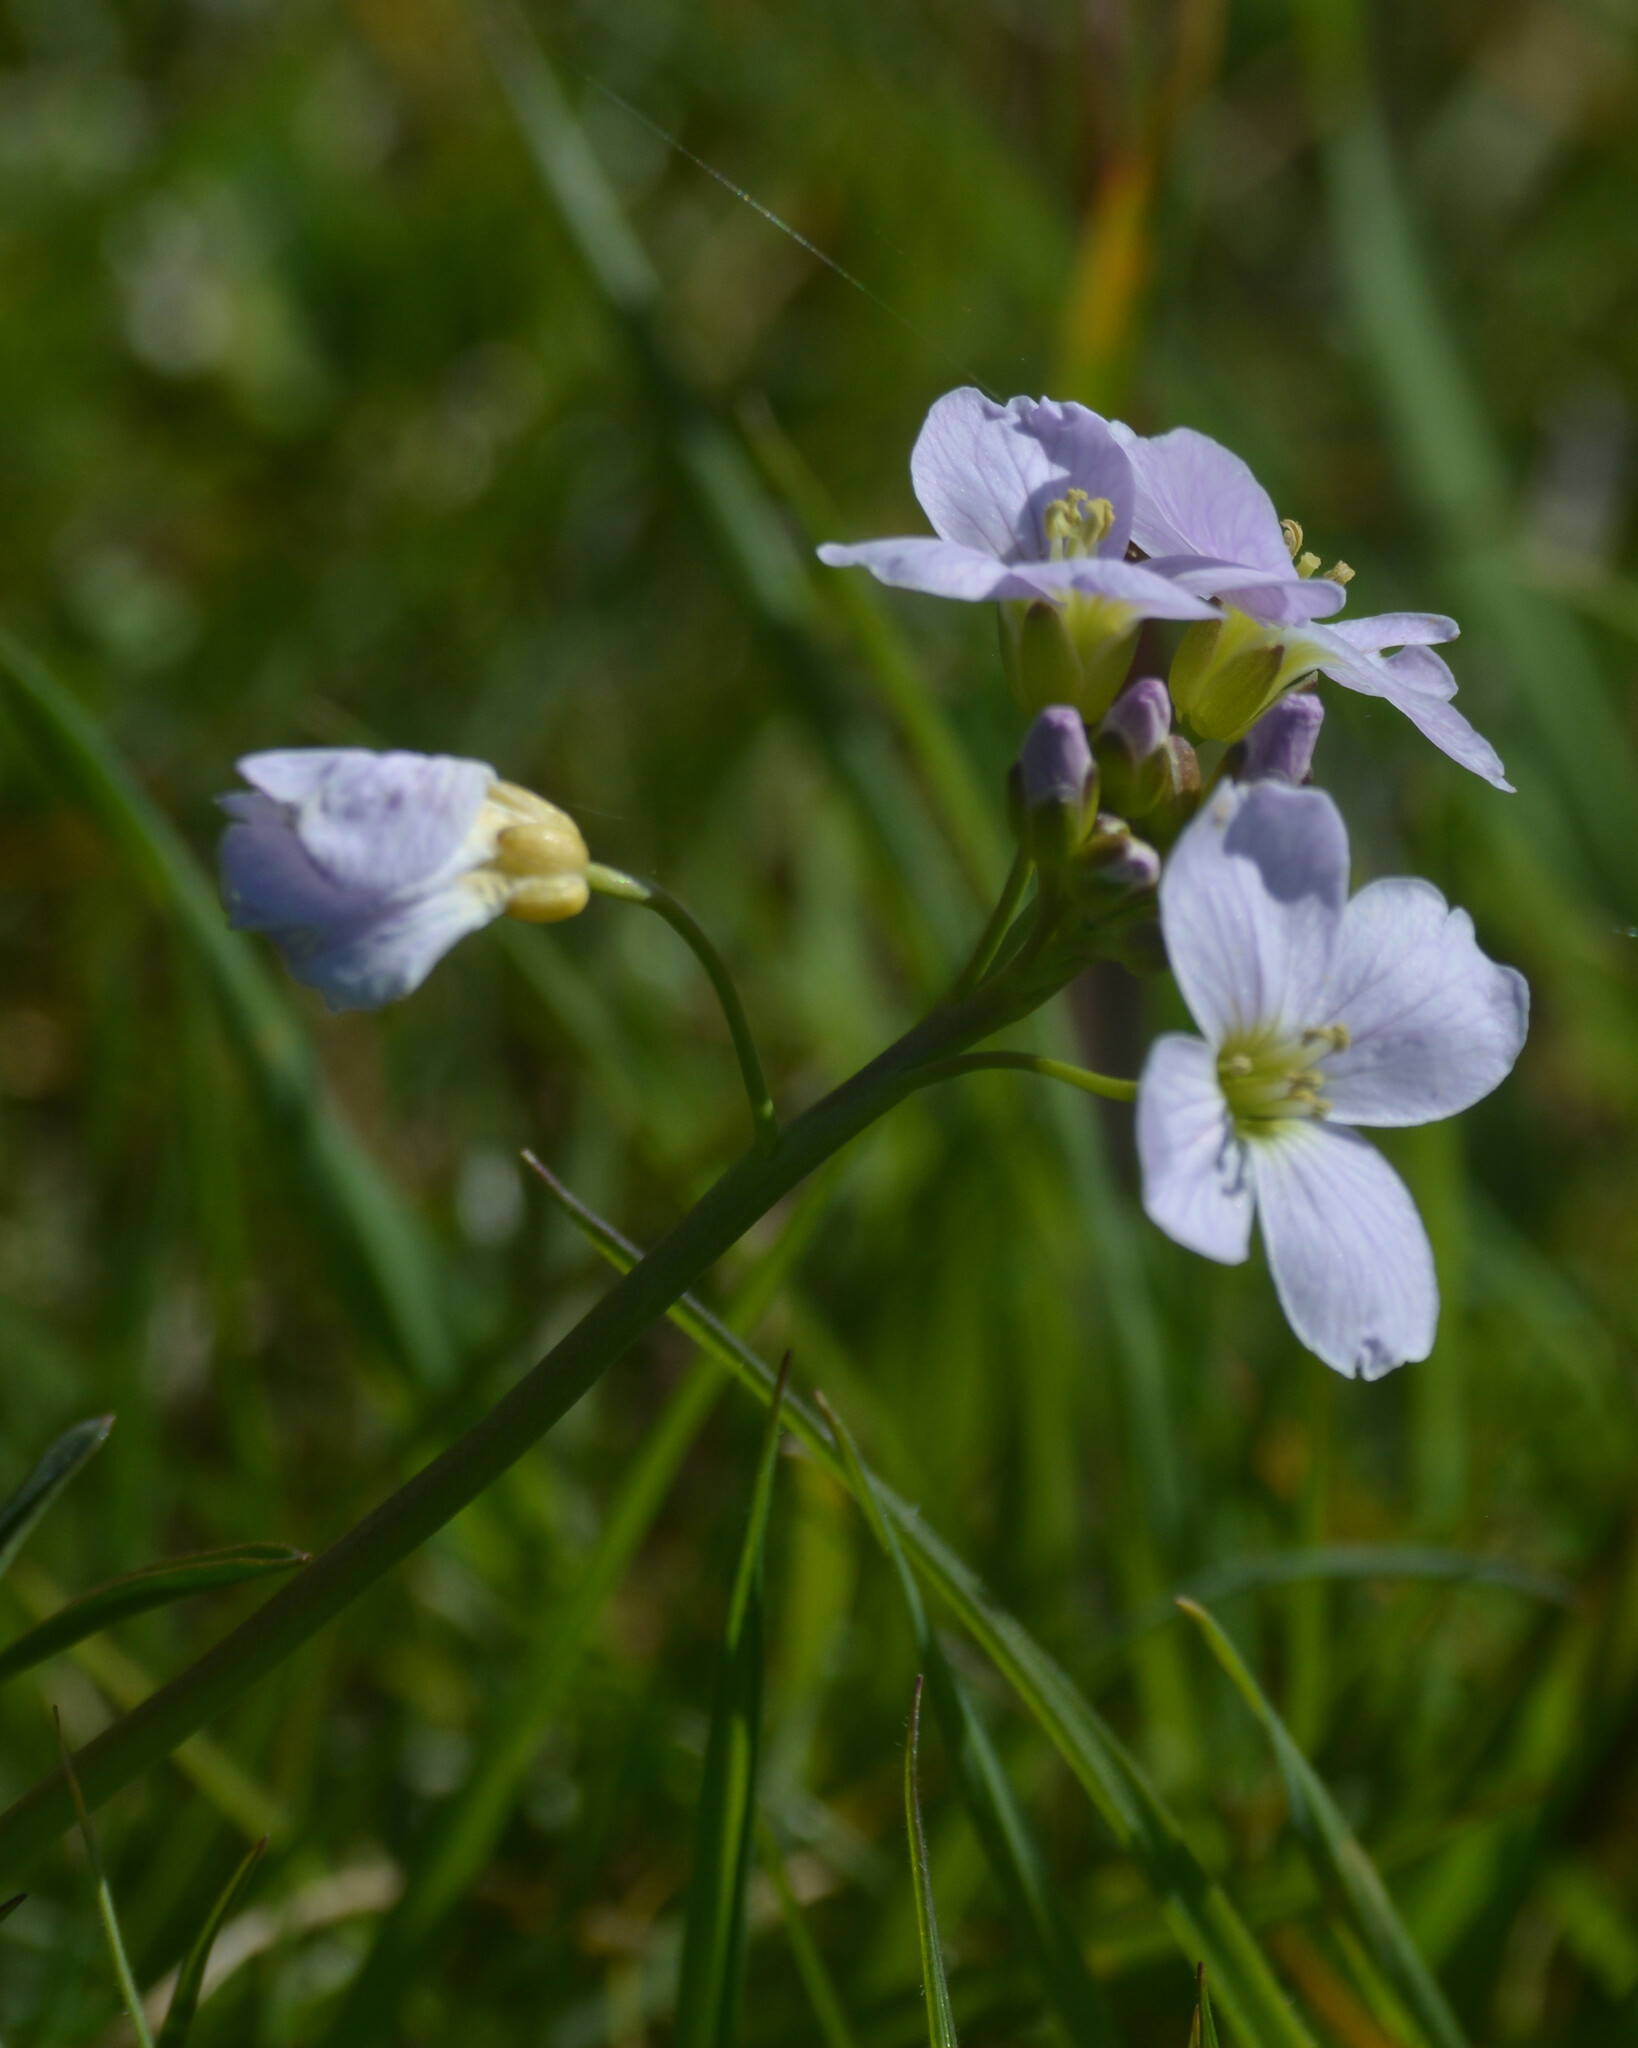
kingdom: Plantae
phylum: Tracheophyta
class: Magnoliopsida
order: Brassicales
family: Brassicaceae
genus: Cardamine
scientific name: Cardamine pratensis
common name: Cuckoo flower
